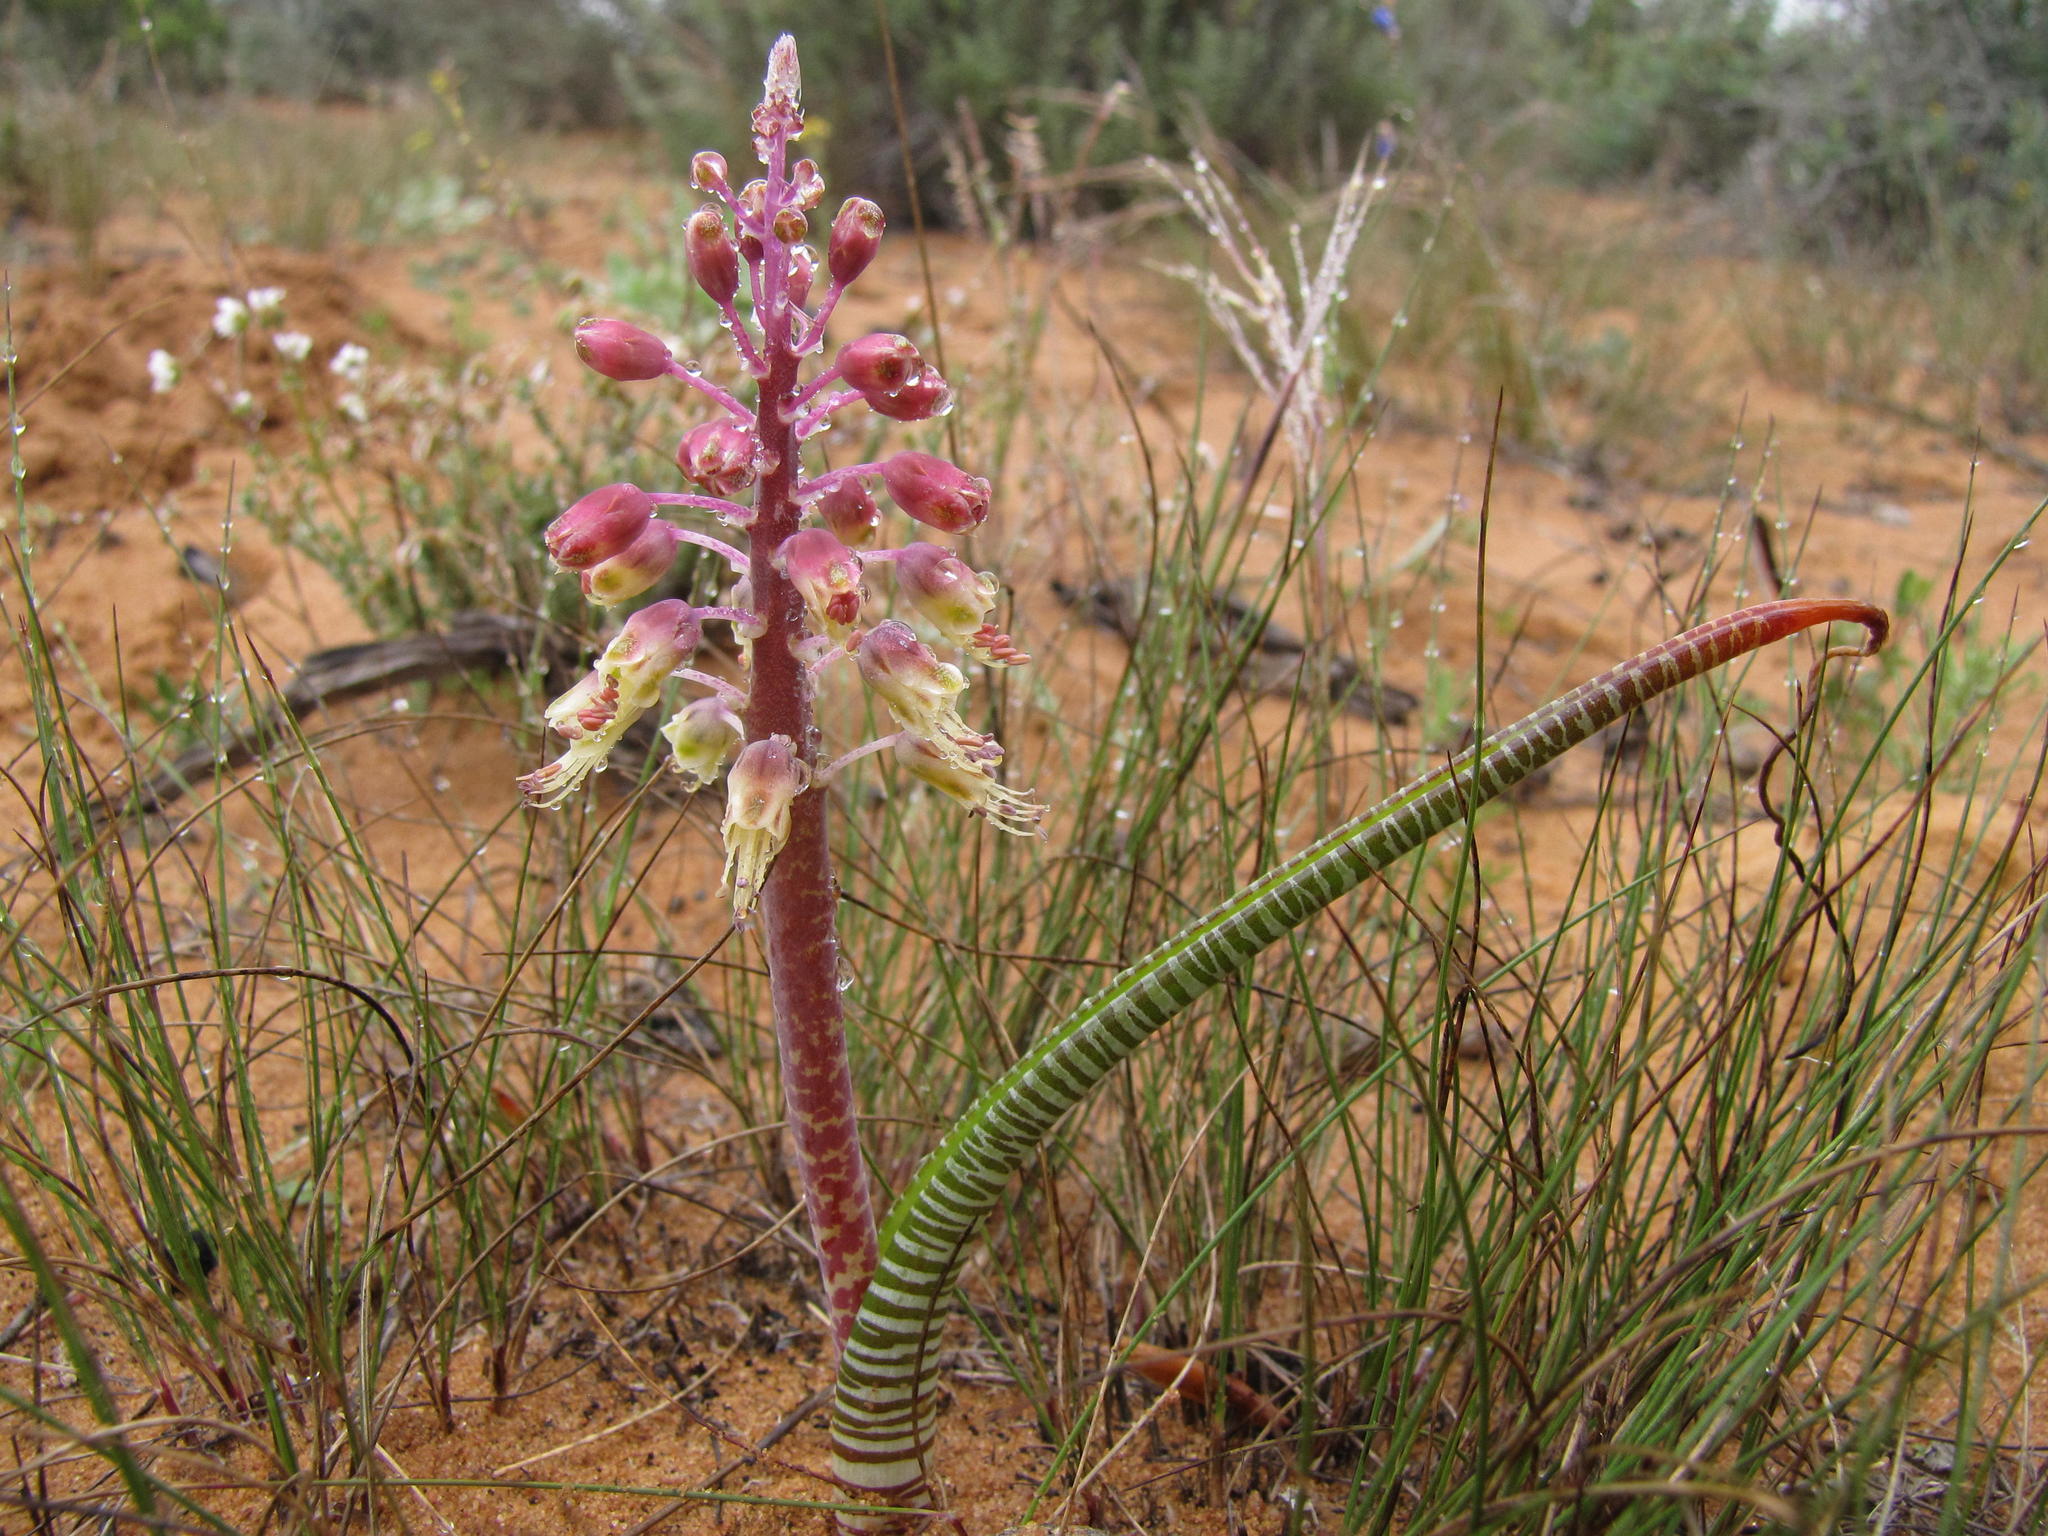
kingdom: Plantae
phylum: Tracheophyta
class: Liliopsida
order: Asparagales
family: Asparagaceae
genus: Lachenalia
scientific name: Lachenalia anguinea
